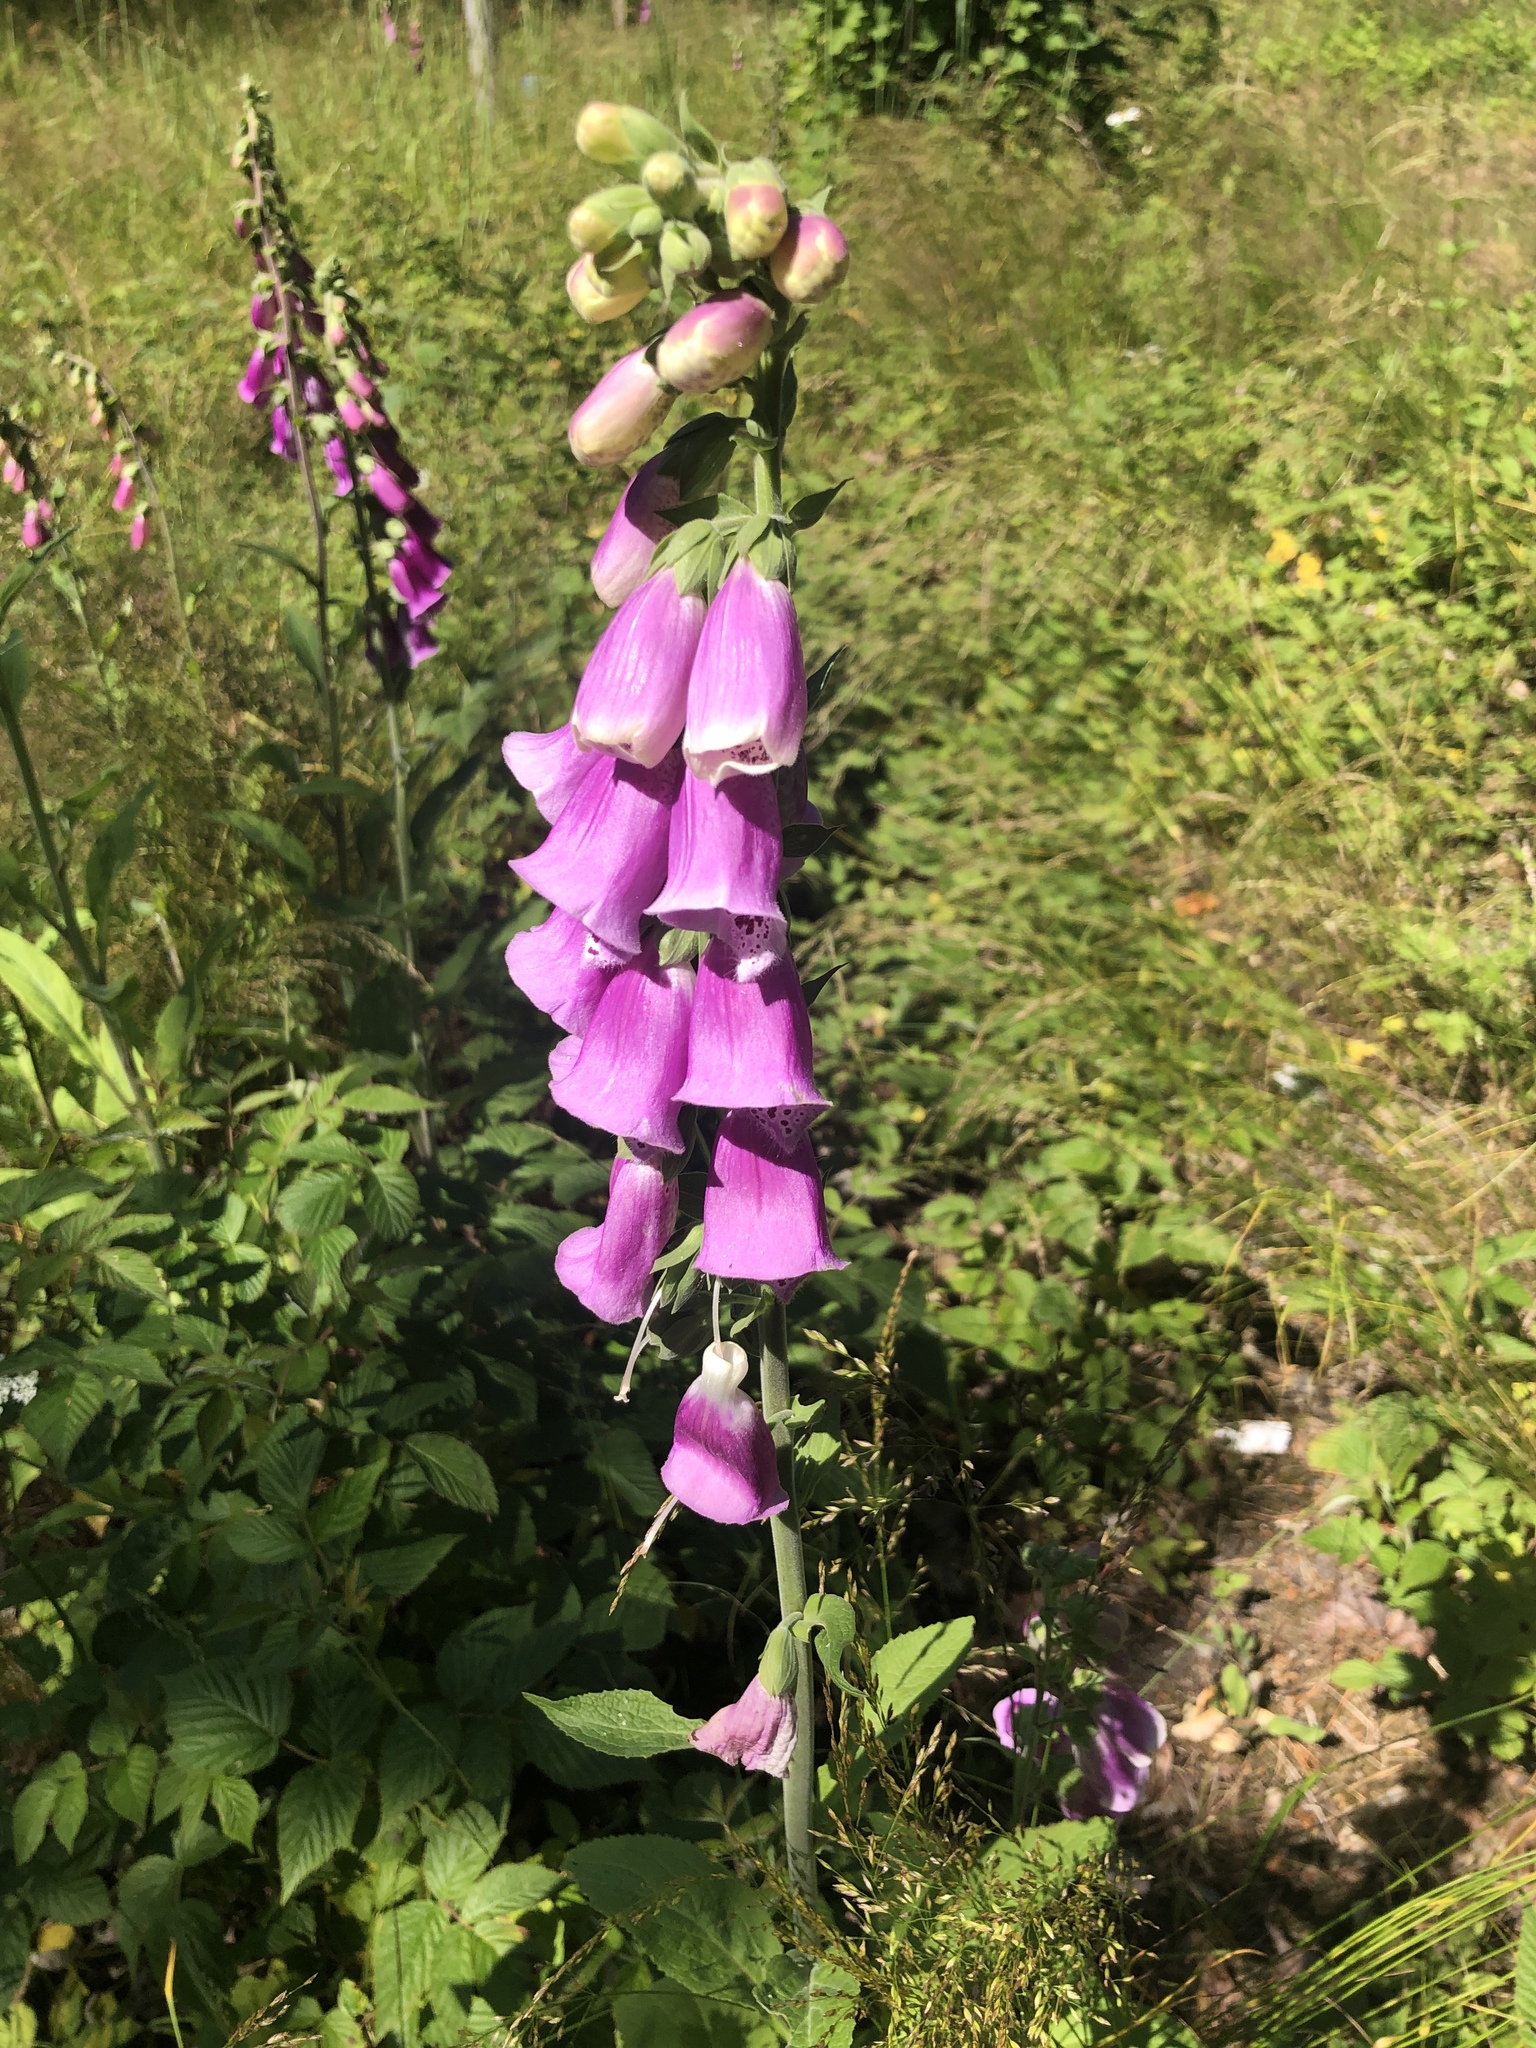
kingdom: Plantae
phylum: Tracheophyta
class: Magnoliopsida
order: Lamiales
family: Plantaginaceae
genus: Digitalis
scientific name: Digitalis purpurea
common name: Foxglove
